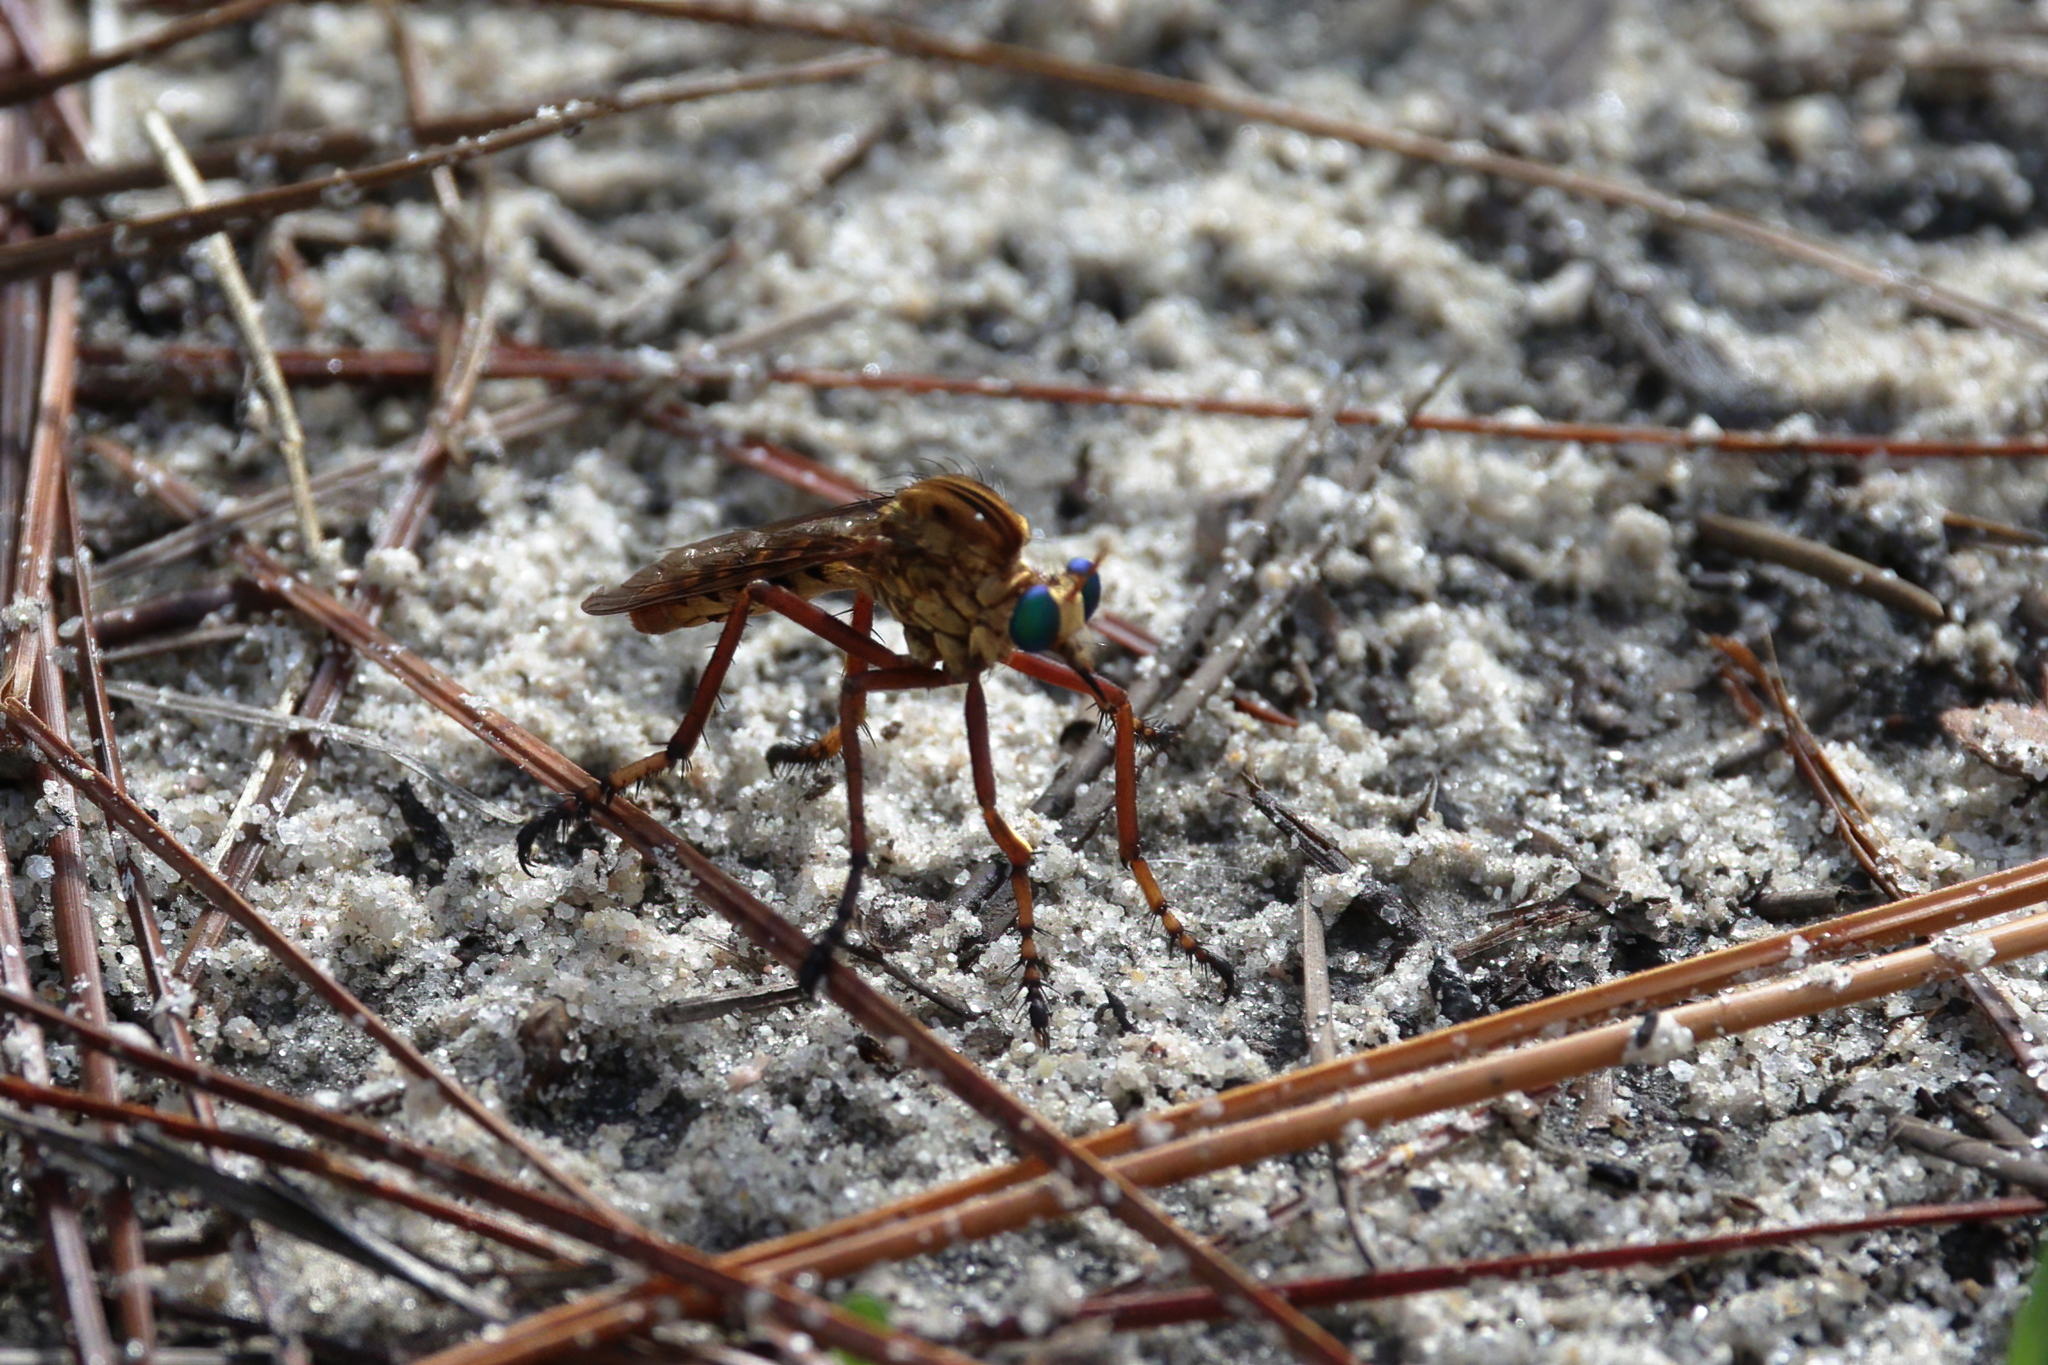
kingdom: Animalia
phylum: Arthropoda
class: Insecta
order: Diptera
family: Asilidae
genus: Diogmites
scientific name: Diogmites crudelis
